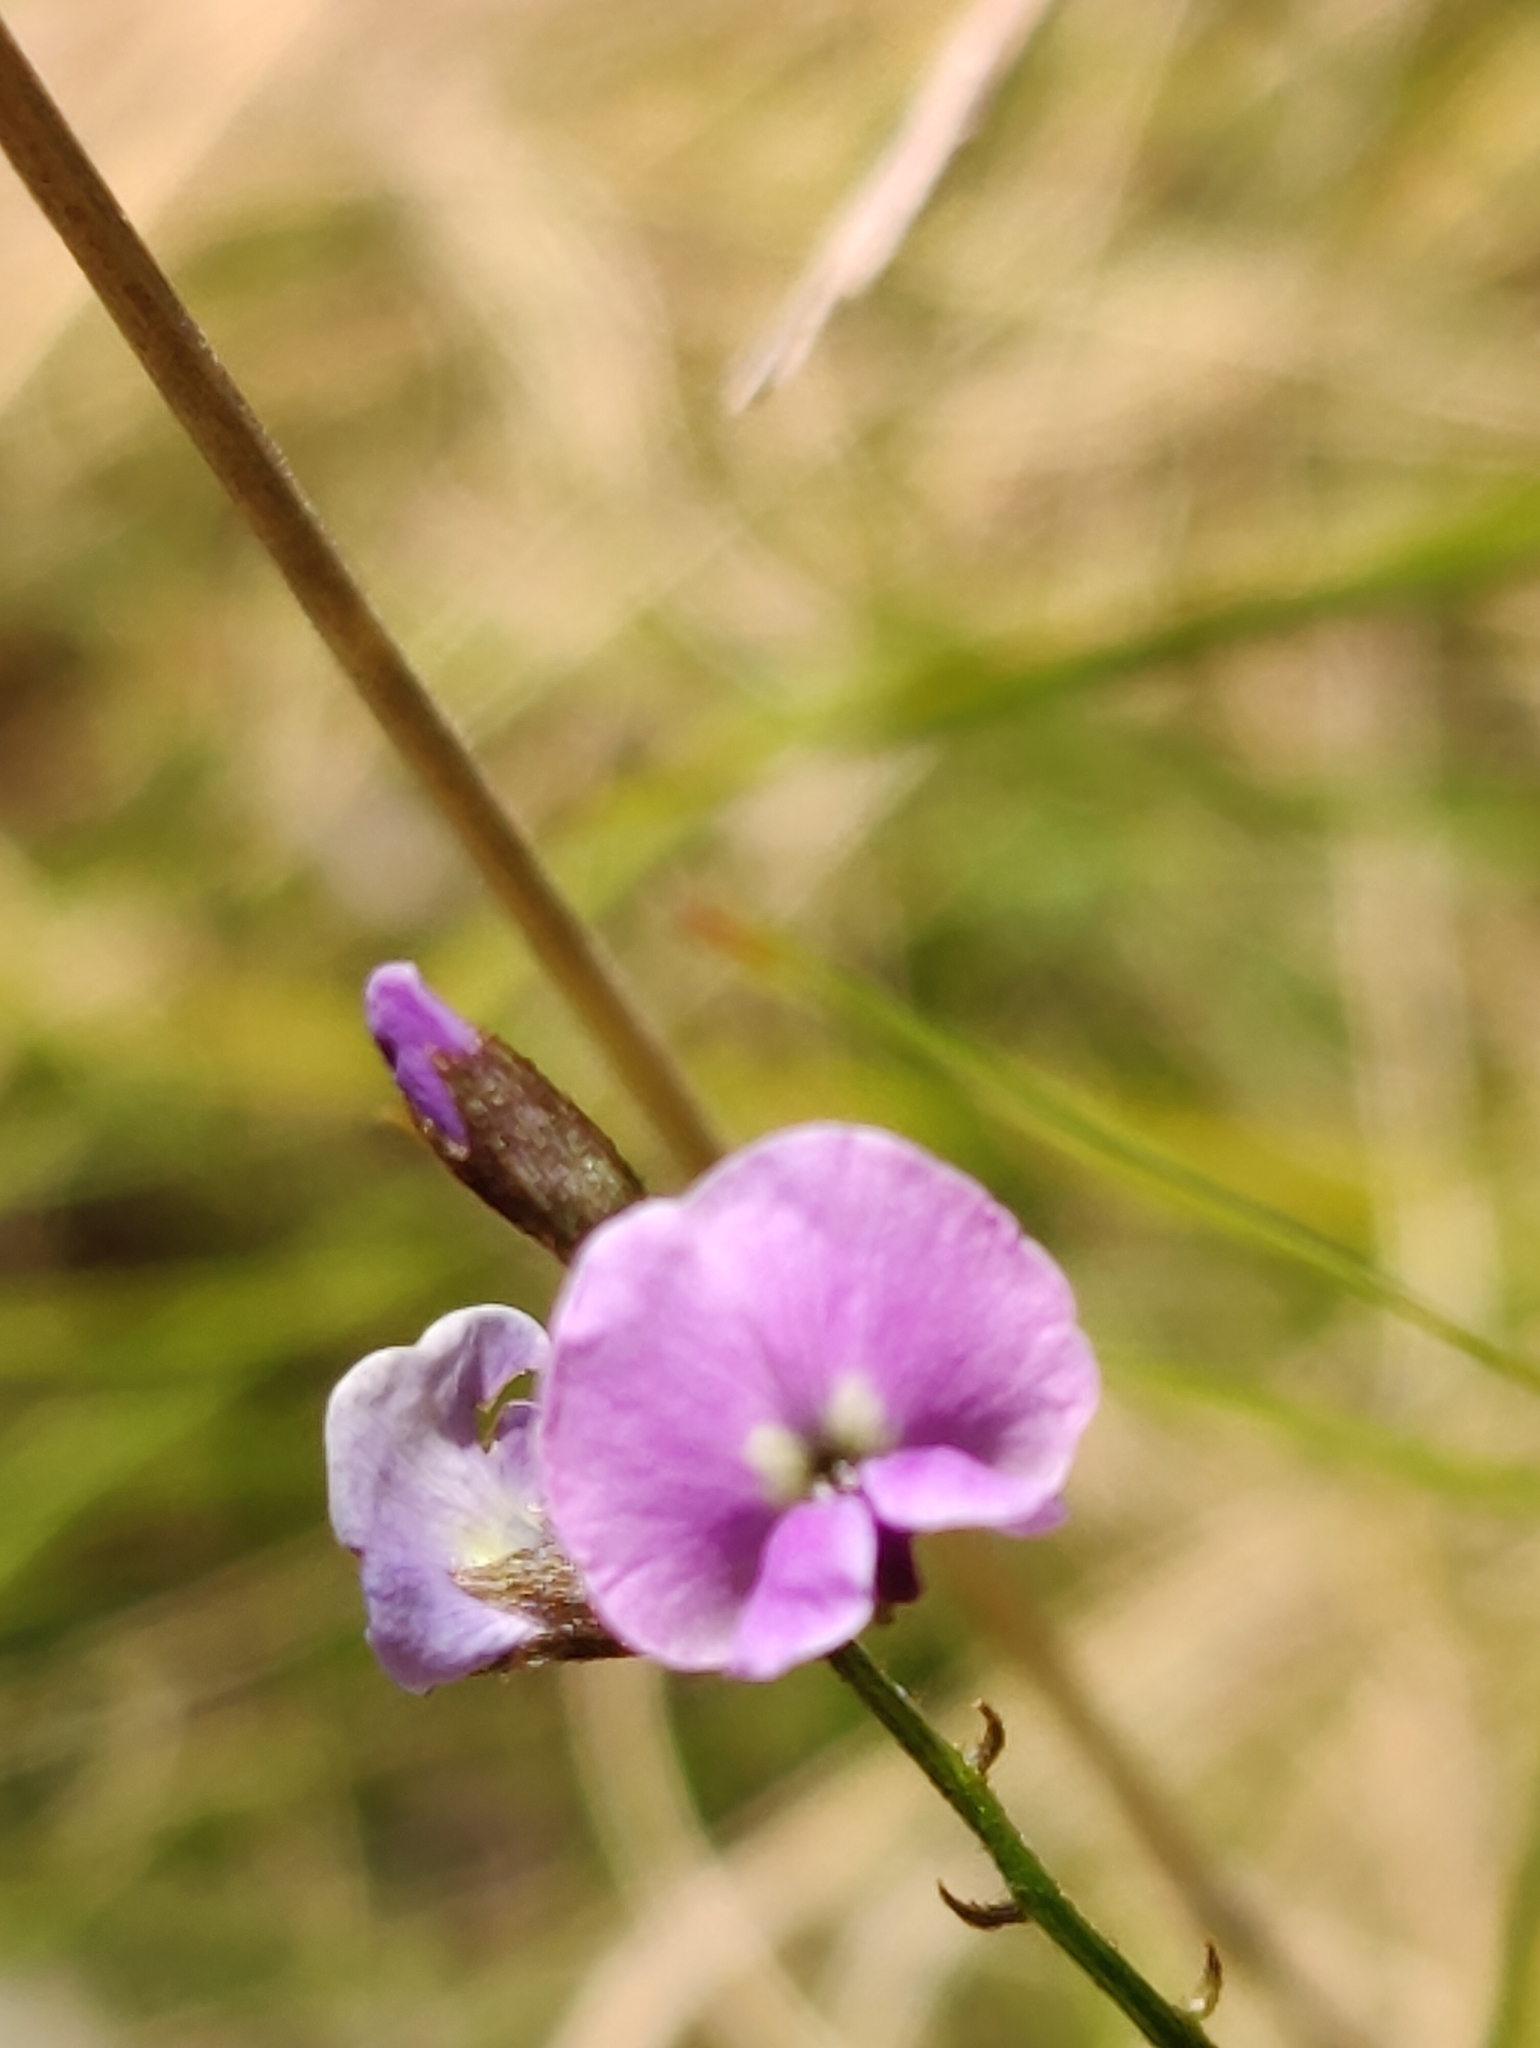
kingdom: Plantae
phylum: Tracheophyta
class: Magnoliopsida
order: Fabales
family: Fabaceae
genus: Glycine
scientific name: Glycine clandestina
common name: Twining glycine
